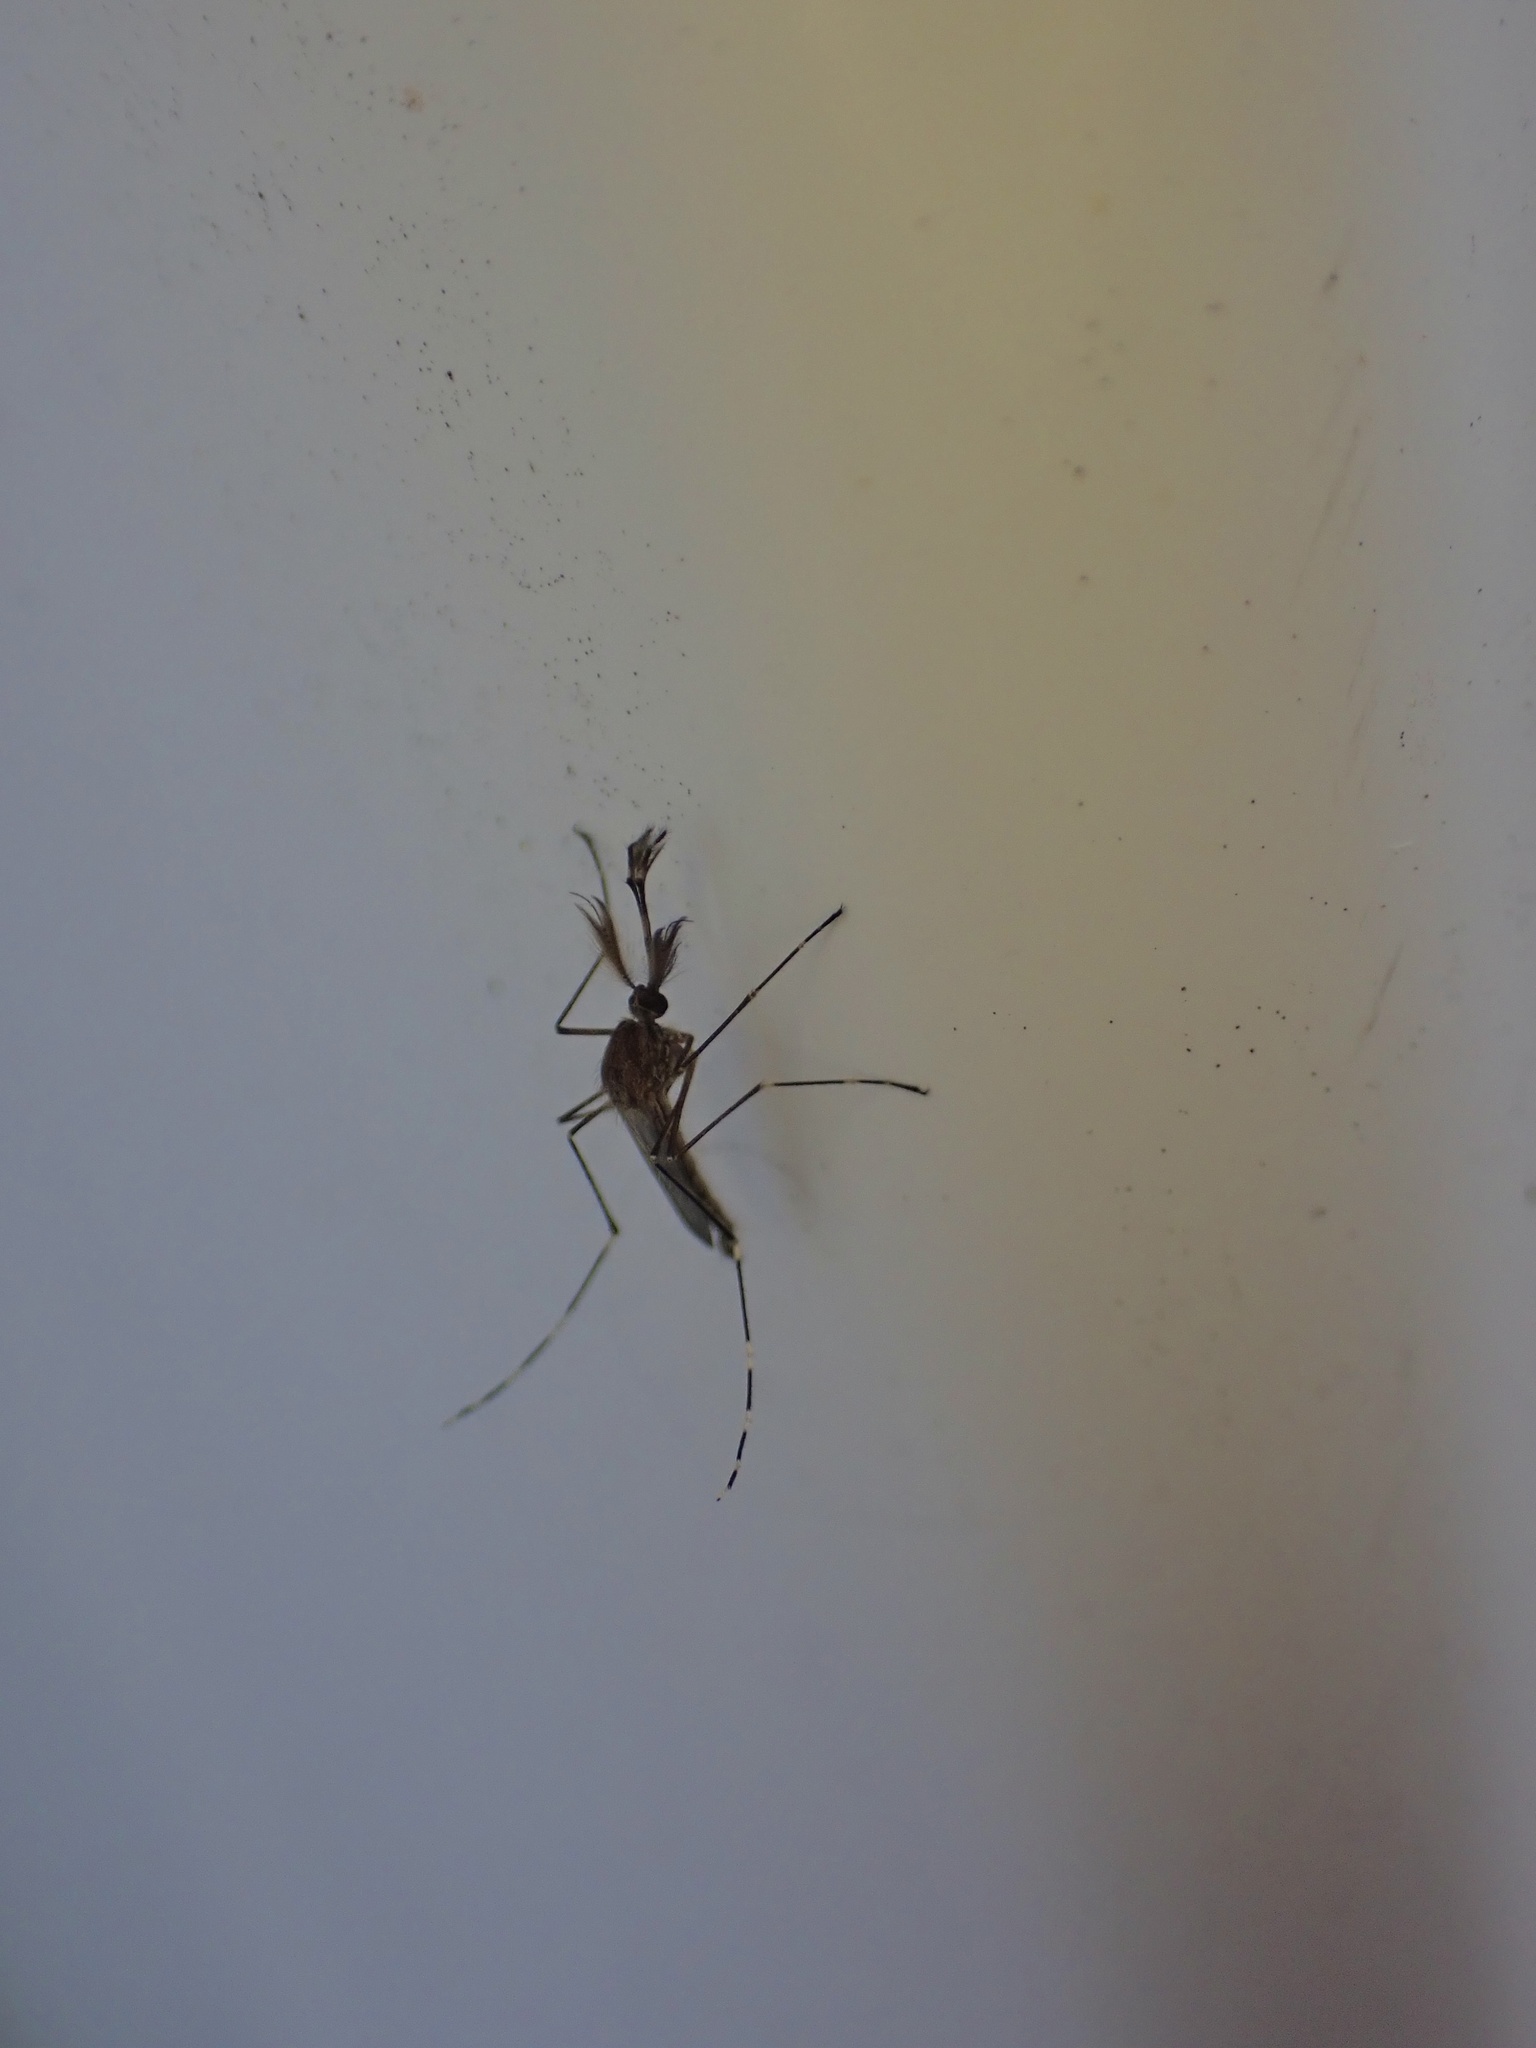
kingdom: Animalia
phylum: Arthropoda
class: Insecta
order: Diptera
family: Culicidae
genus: Aedes
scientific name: Aedes canadensis
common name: Woodland pool mosquito
